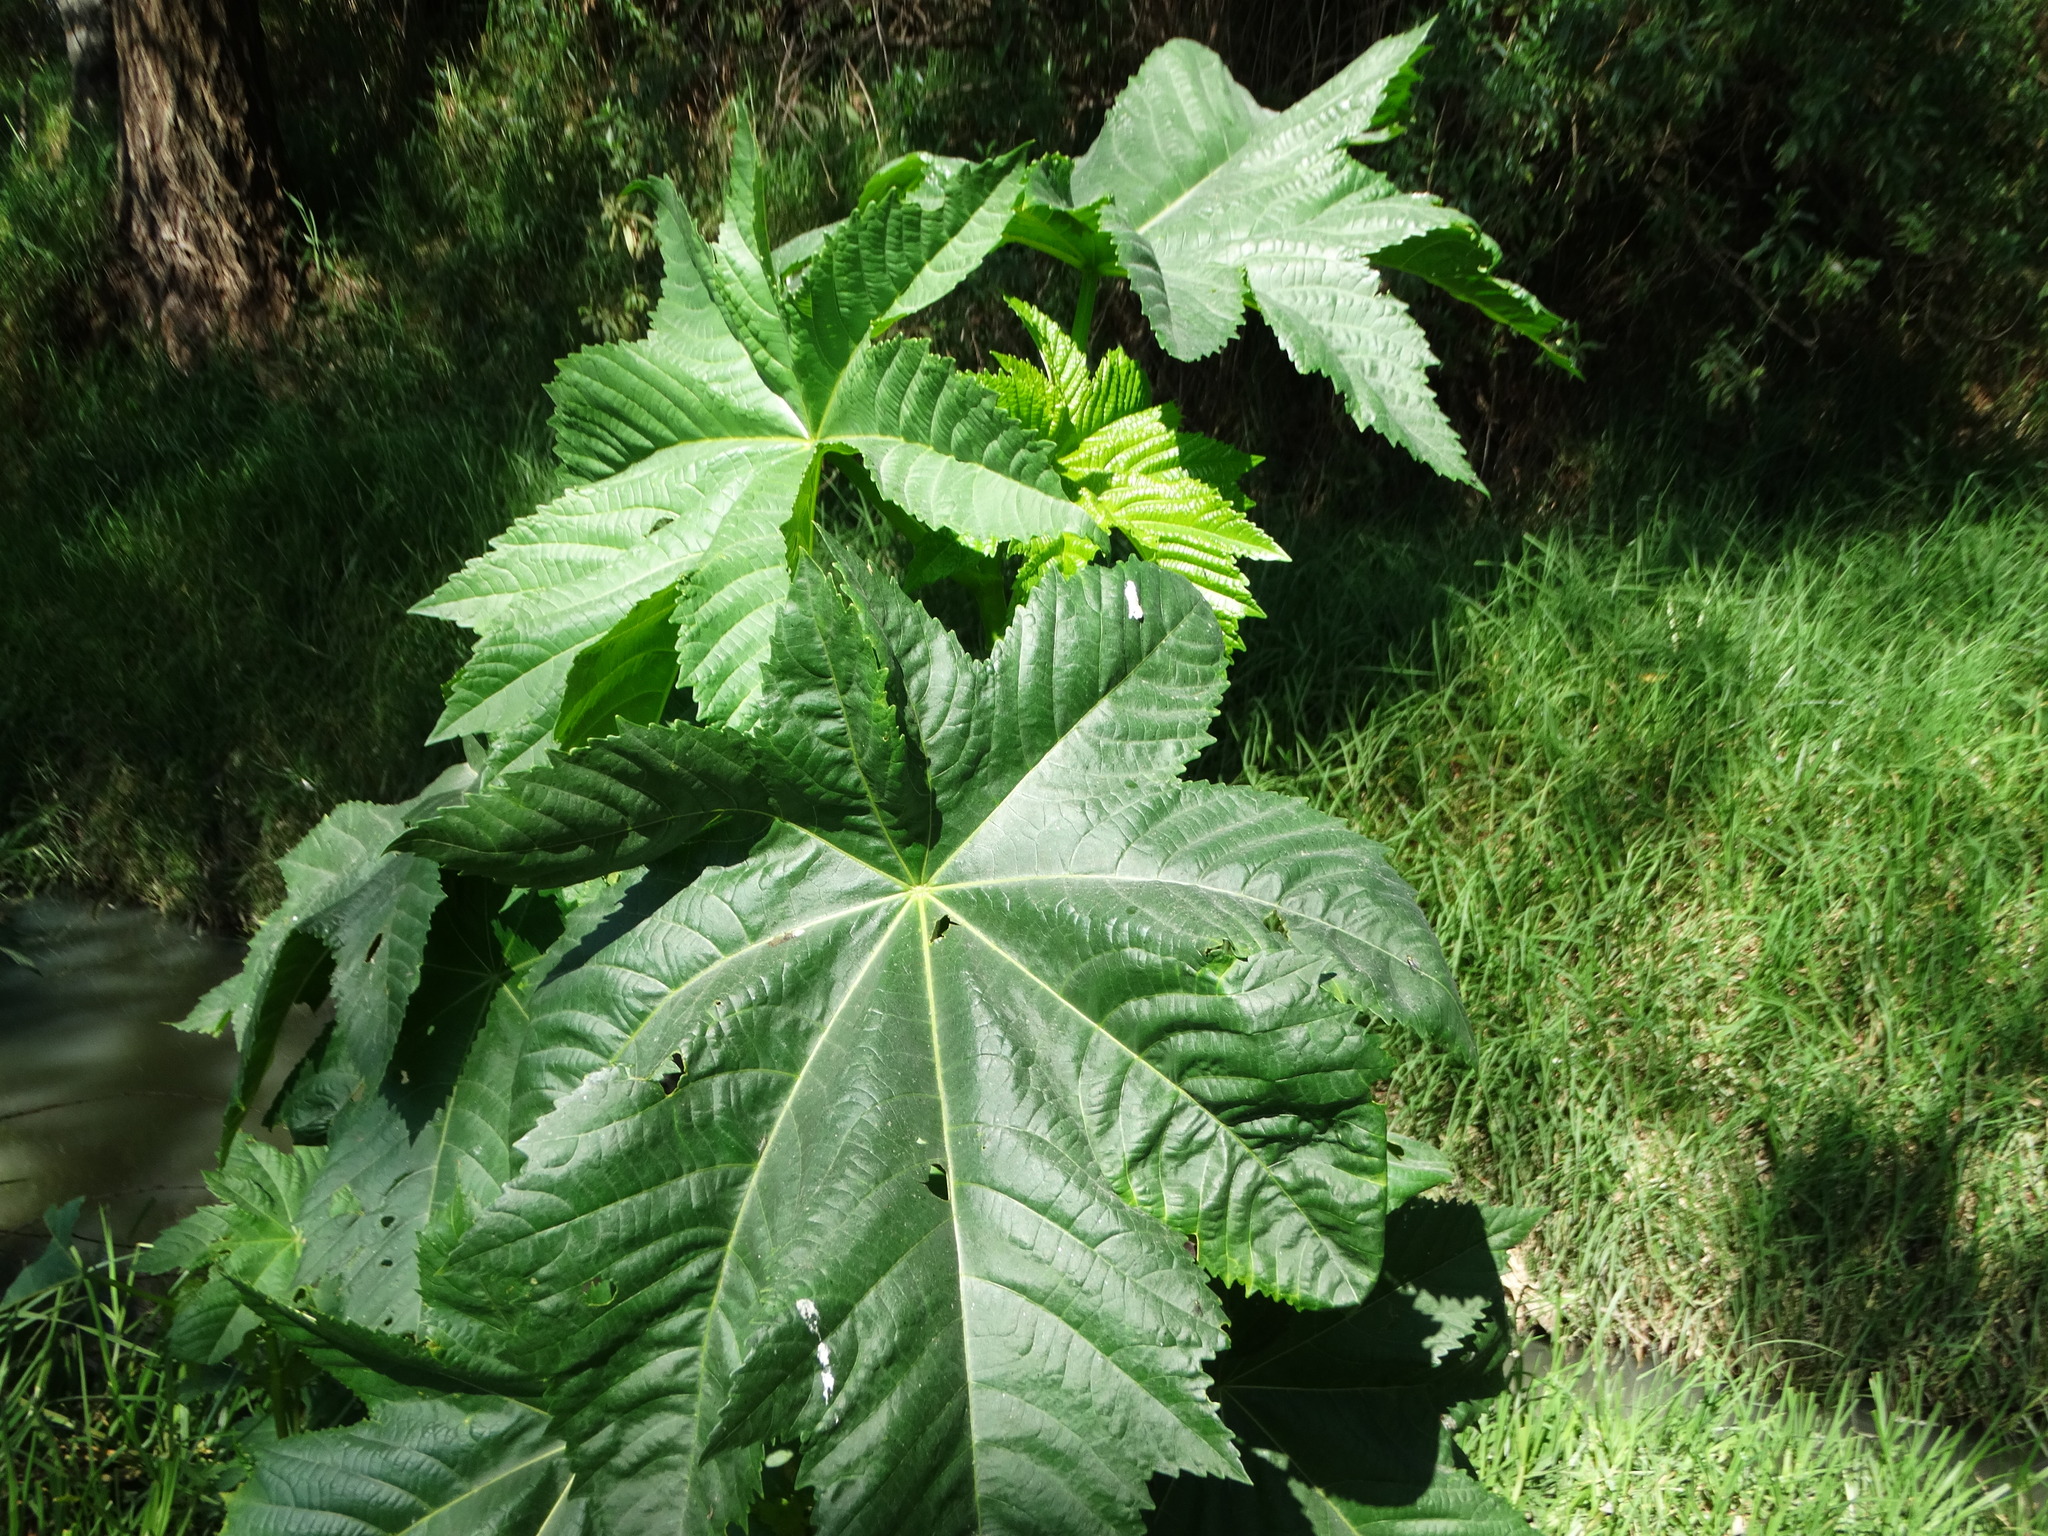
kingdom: Plantae
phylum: Tracheophyta
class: Magnoliopsida
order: Malpighiales
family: Euphorbiaceae
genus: Ricinus
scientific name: Ricinus communis
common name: Castor-oil-plant
